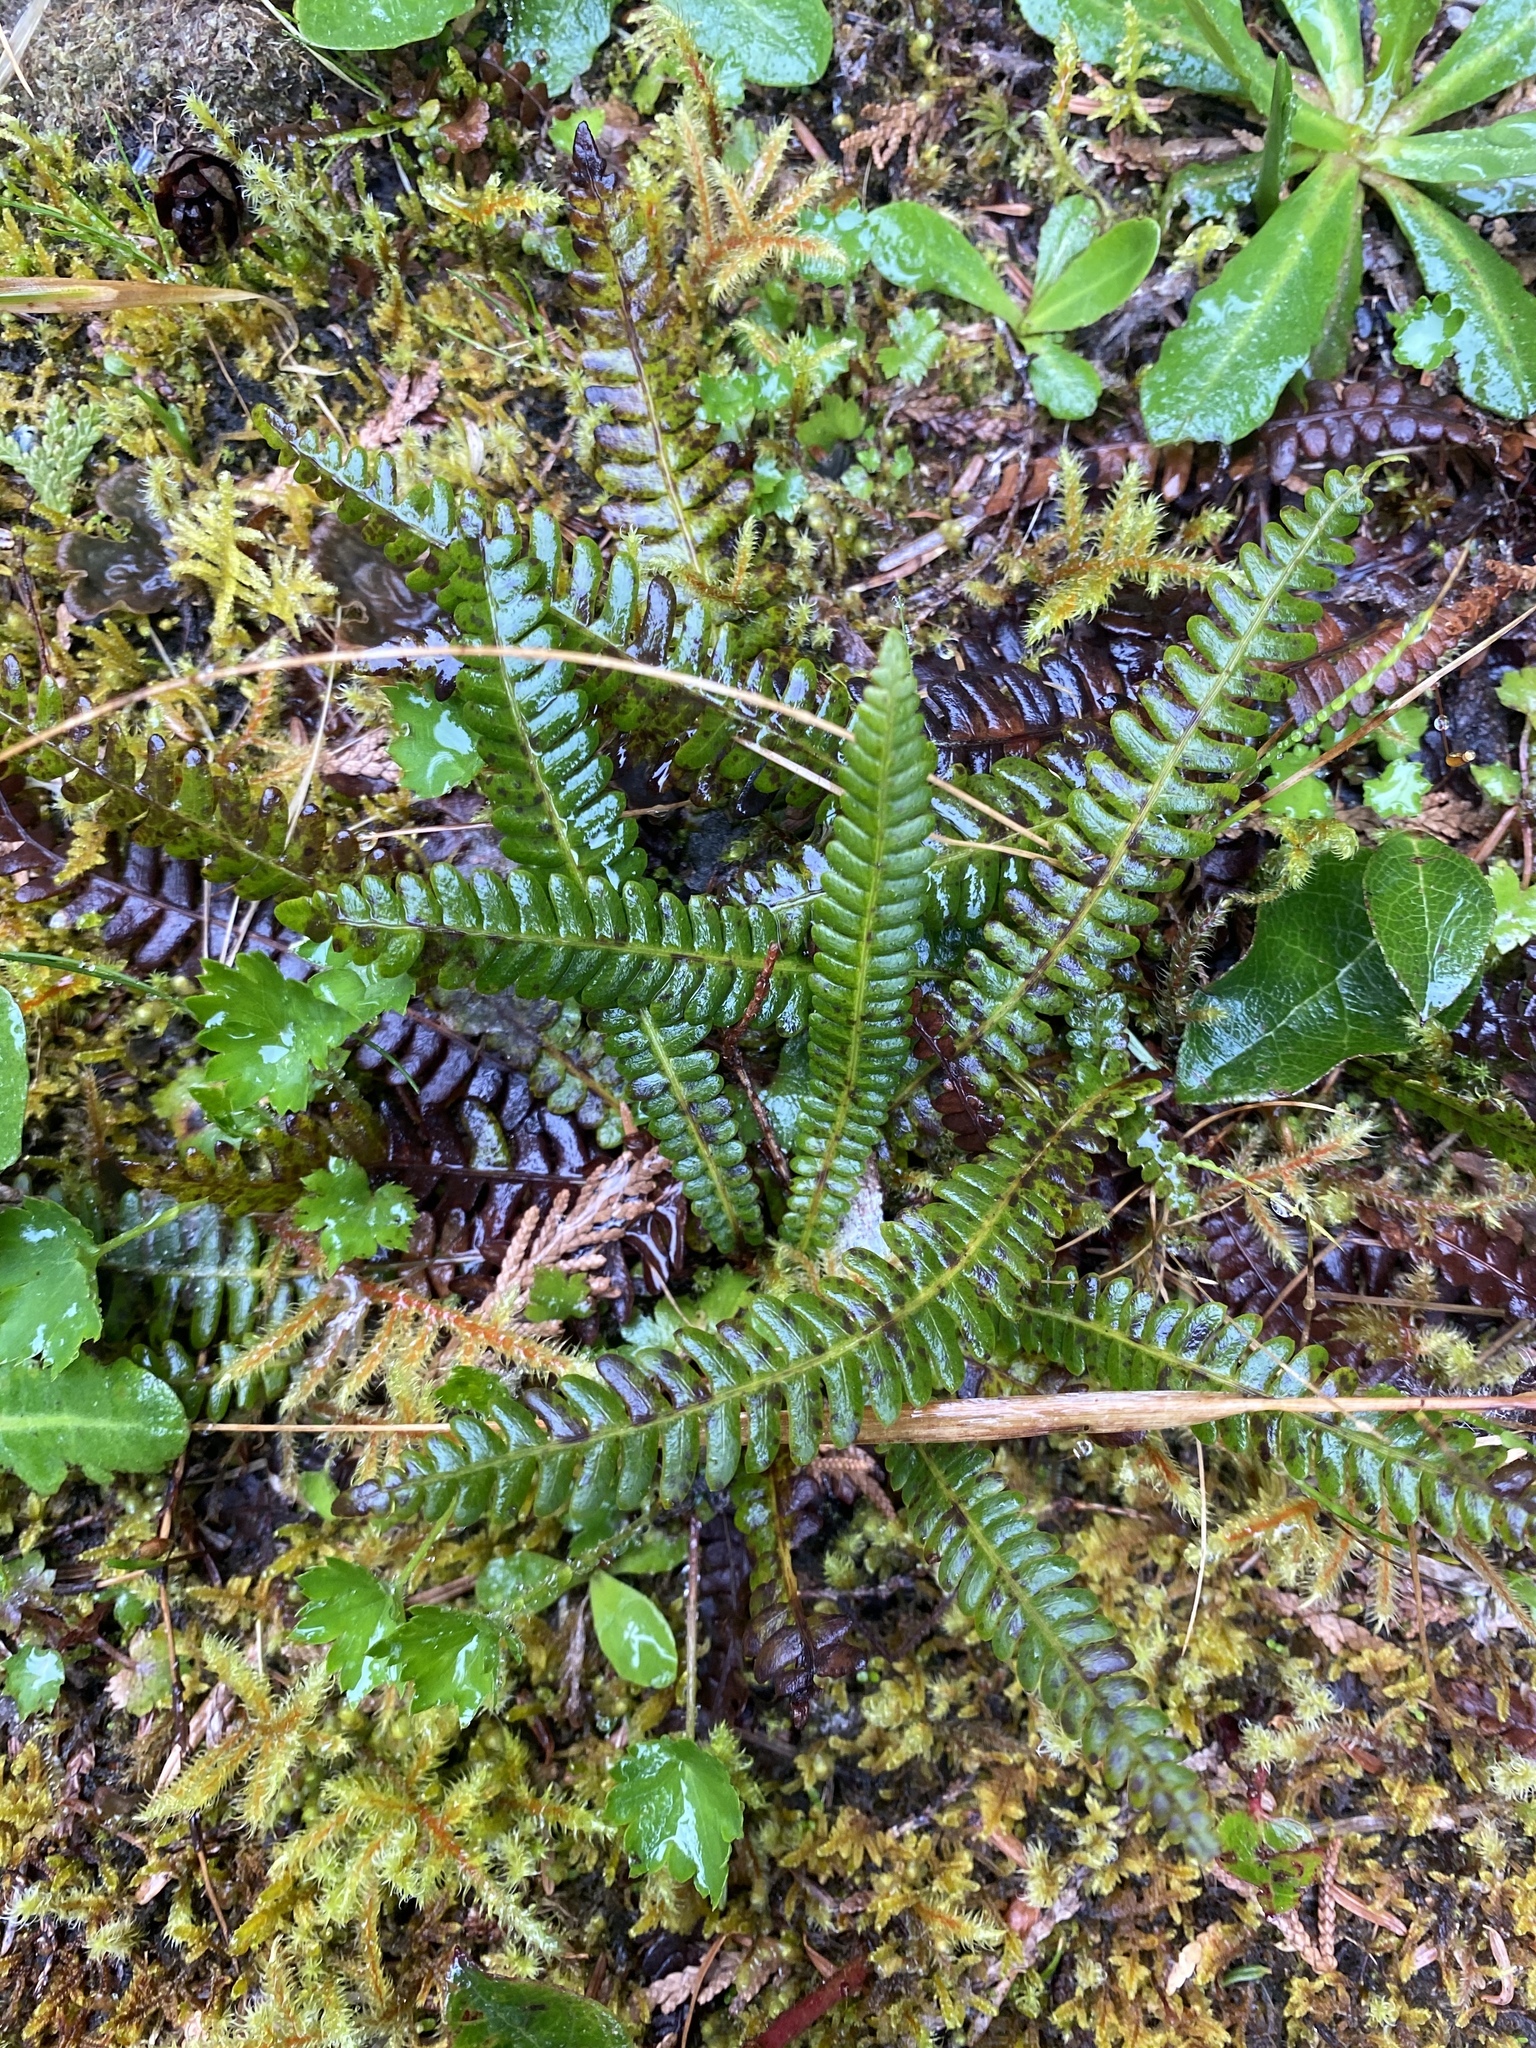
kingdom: Plantae
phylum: Tracheophyta
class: Polypodiopsida
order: Polypodiales
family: Blechnaceae
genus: Struthiopteris
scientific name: Struthiopteris spicant
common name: Deer fern
